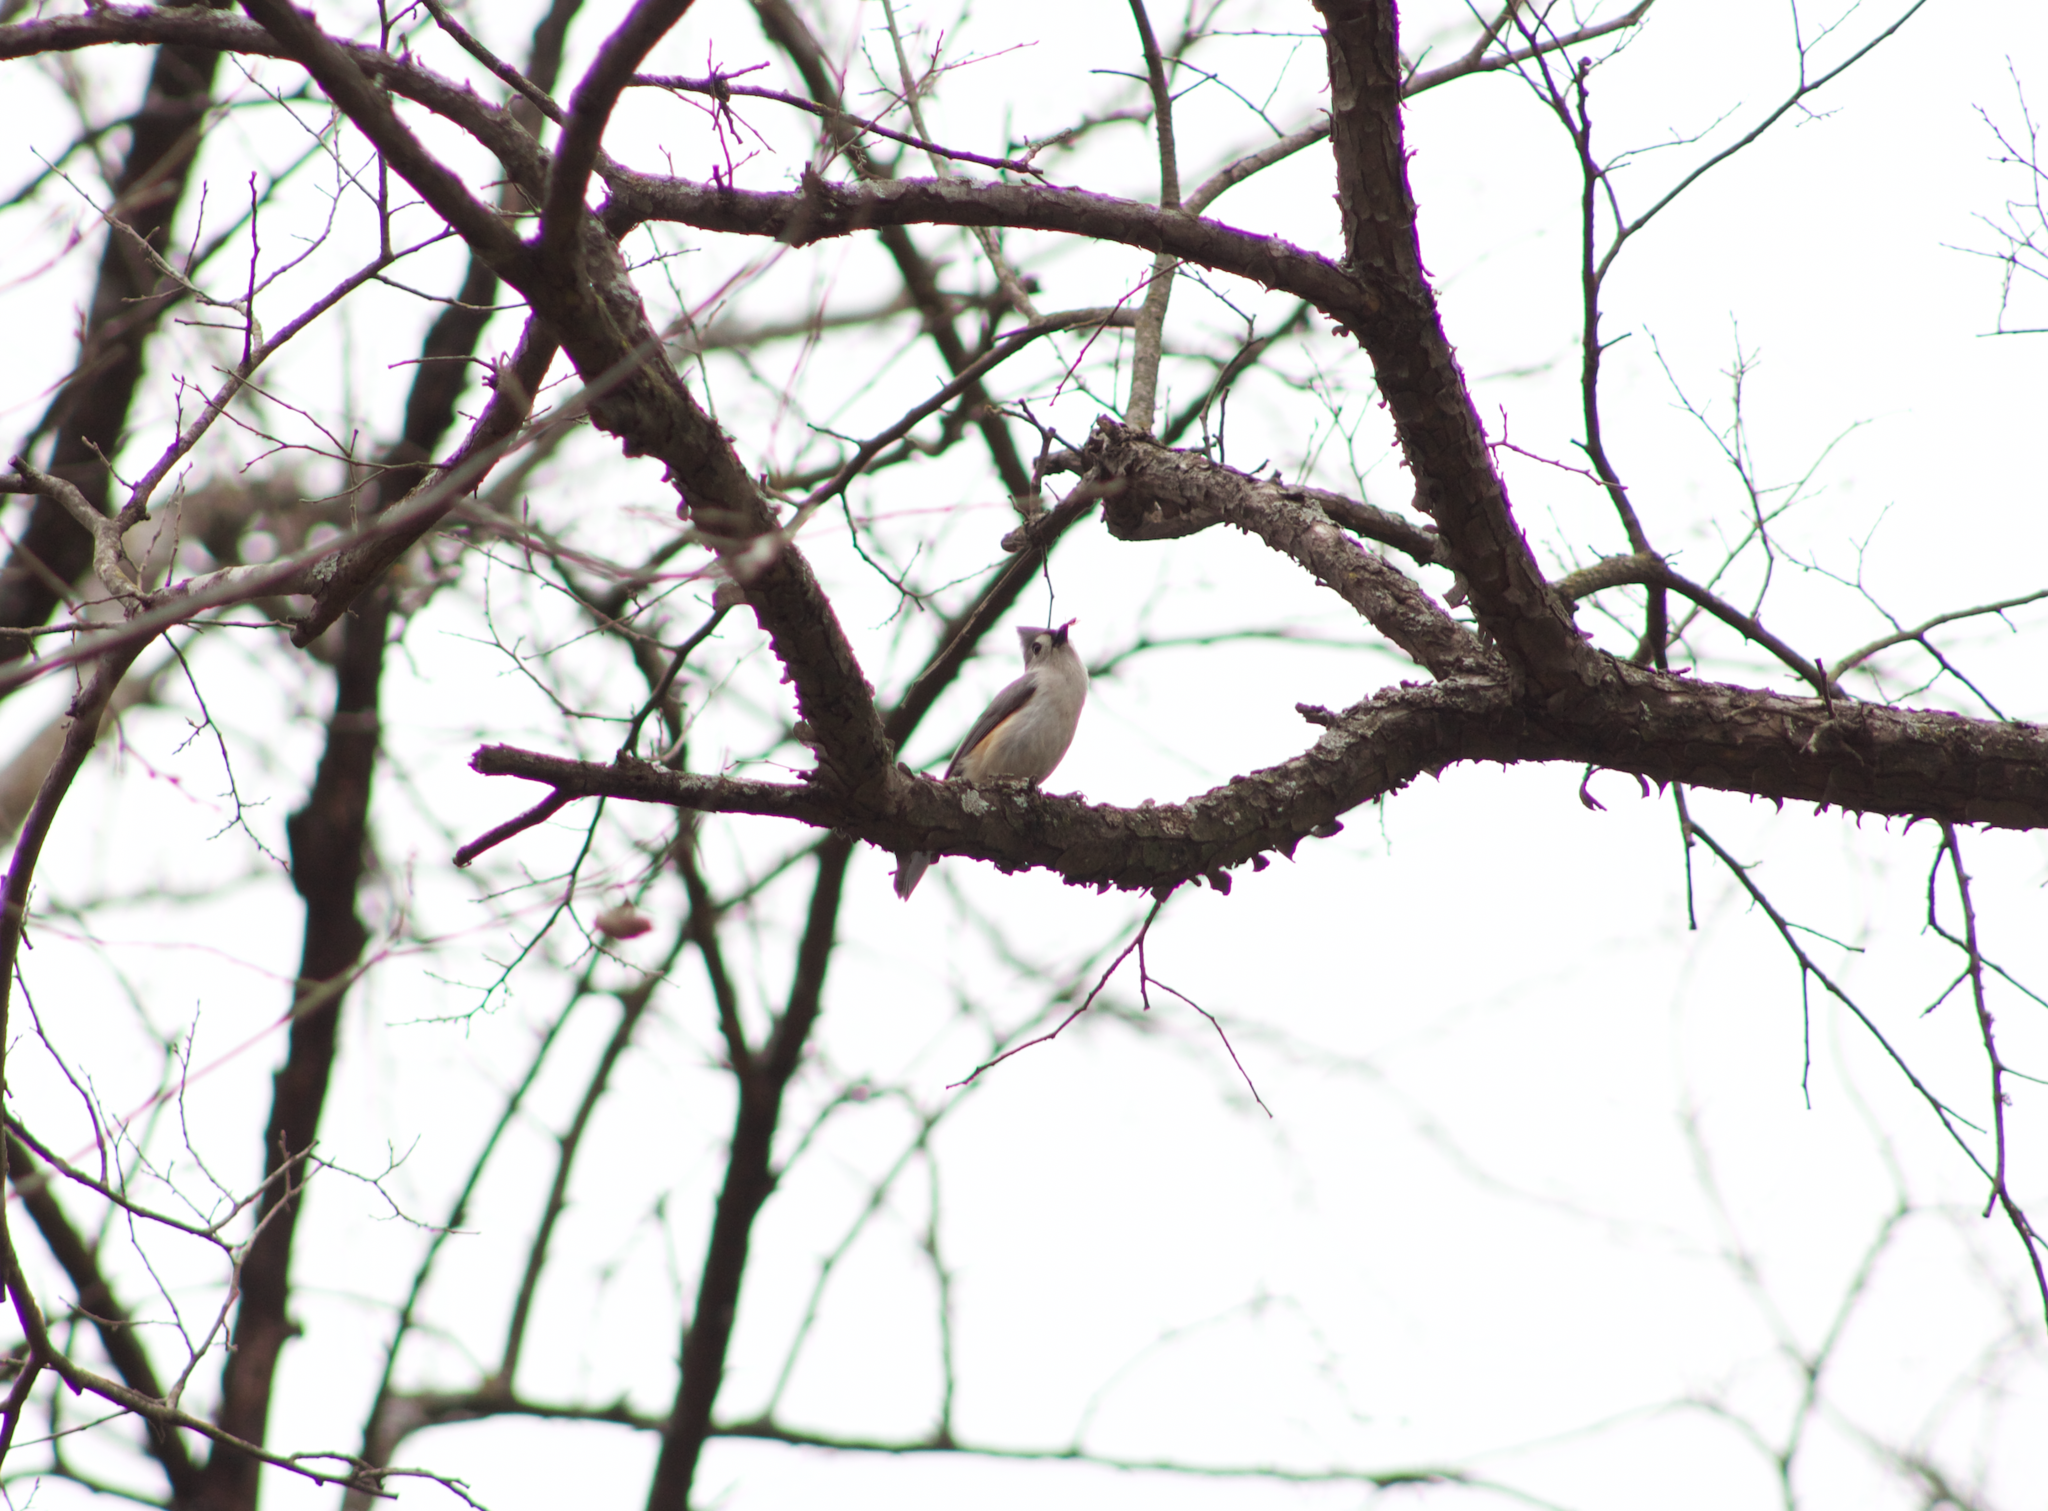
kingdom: Animalia
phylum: Chordata
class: Aves
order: Passeriformes
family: Paridae
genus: Baeolophus
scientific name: Baeolophus bicolor
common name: Tufted titmouse
